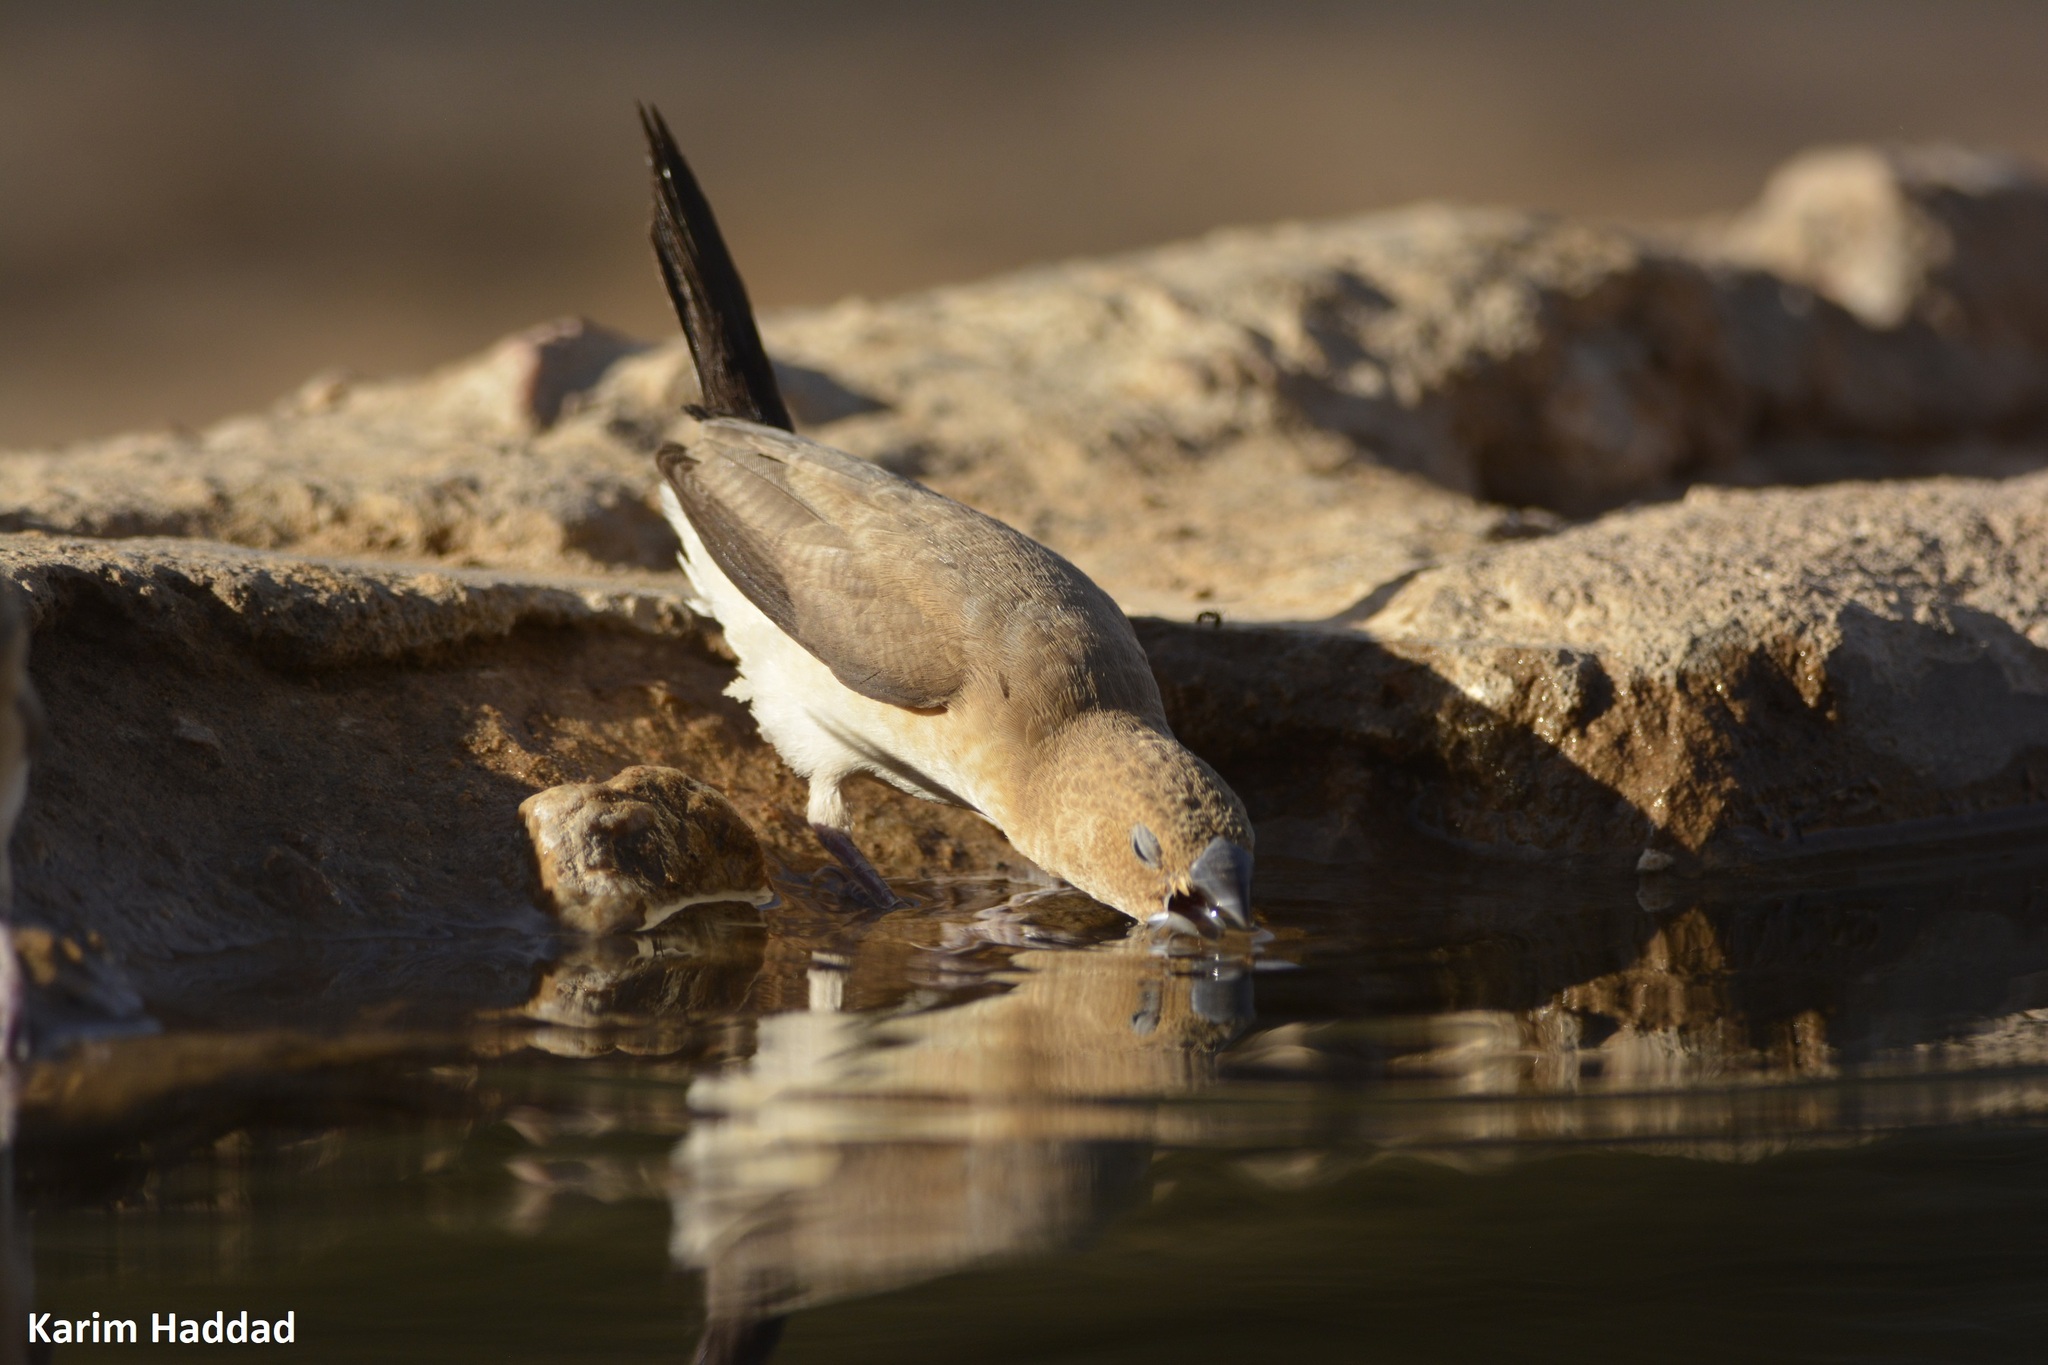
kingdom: Animalia
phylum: Chordata
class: Aves
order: Passeriformes
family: Estrildidae
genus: Euodice
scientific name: Euodice cantans
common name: African silverbill
